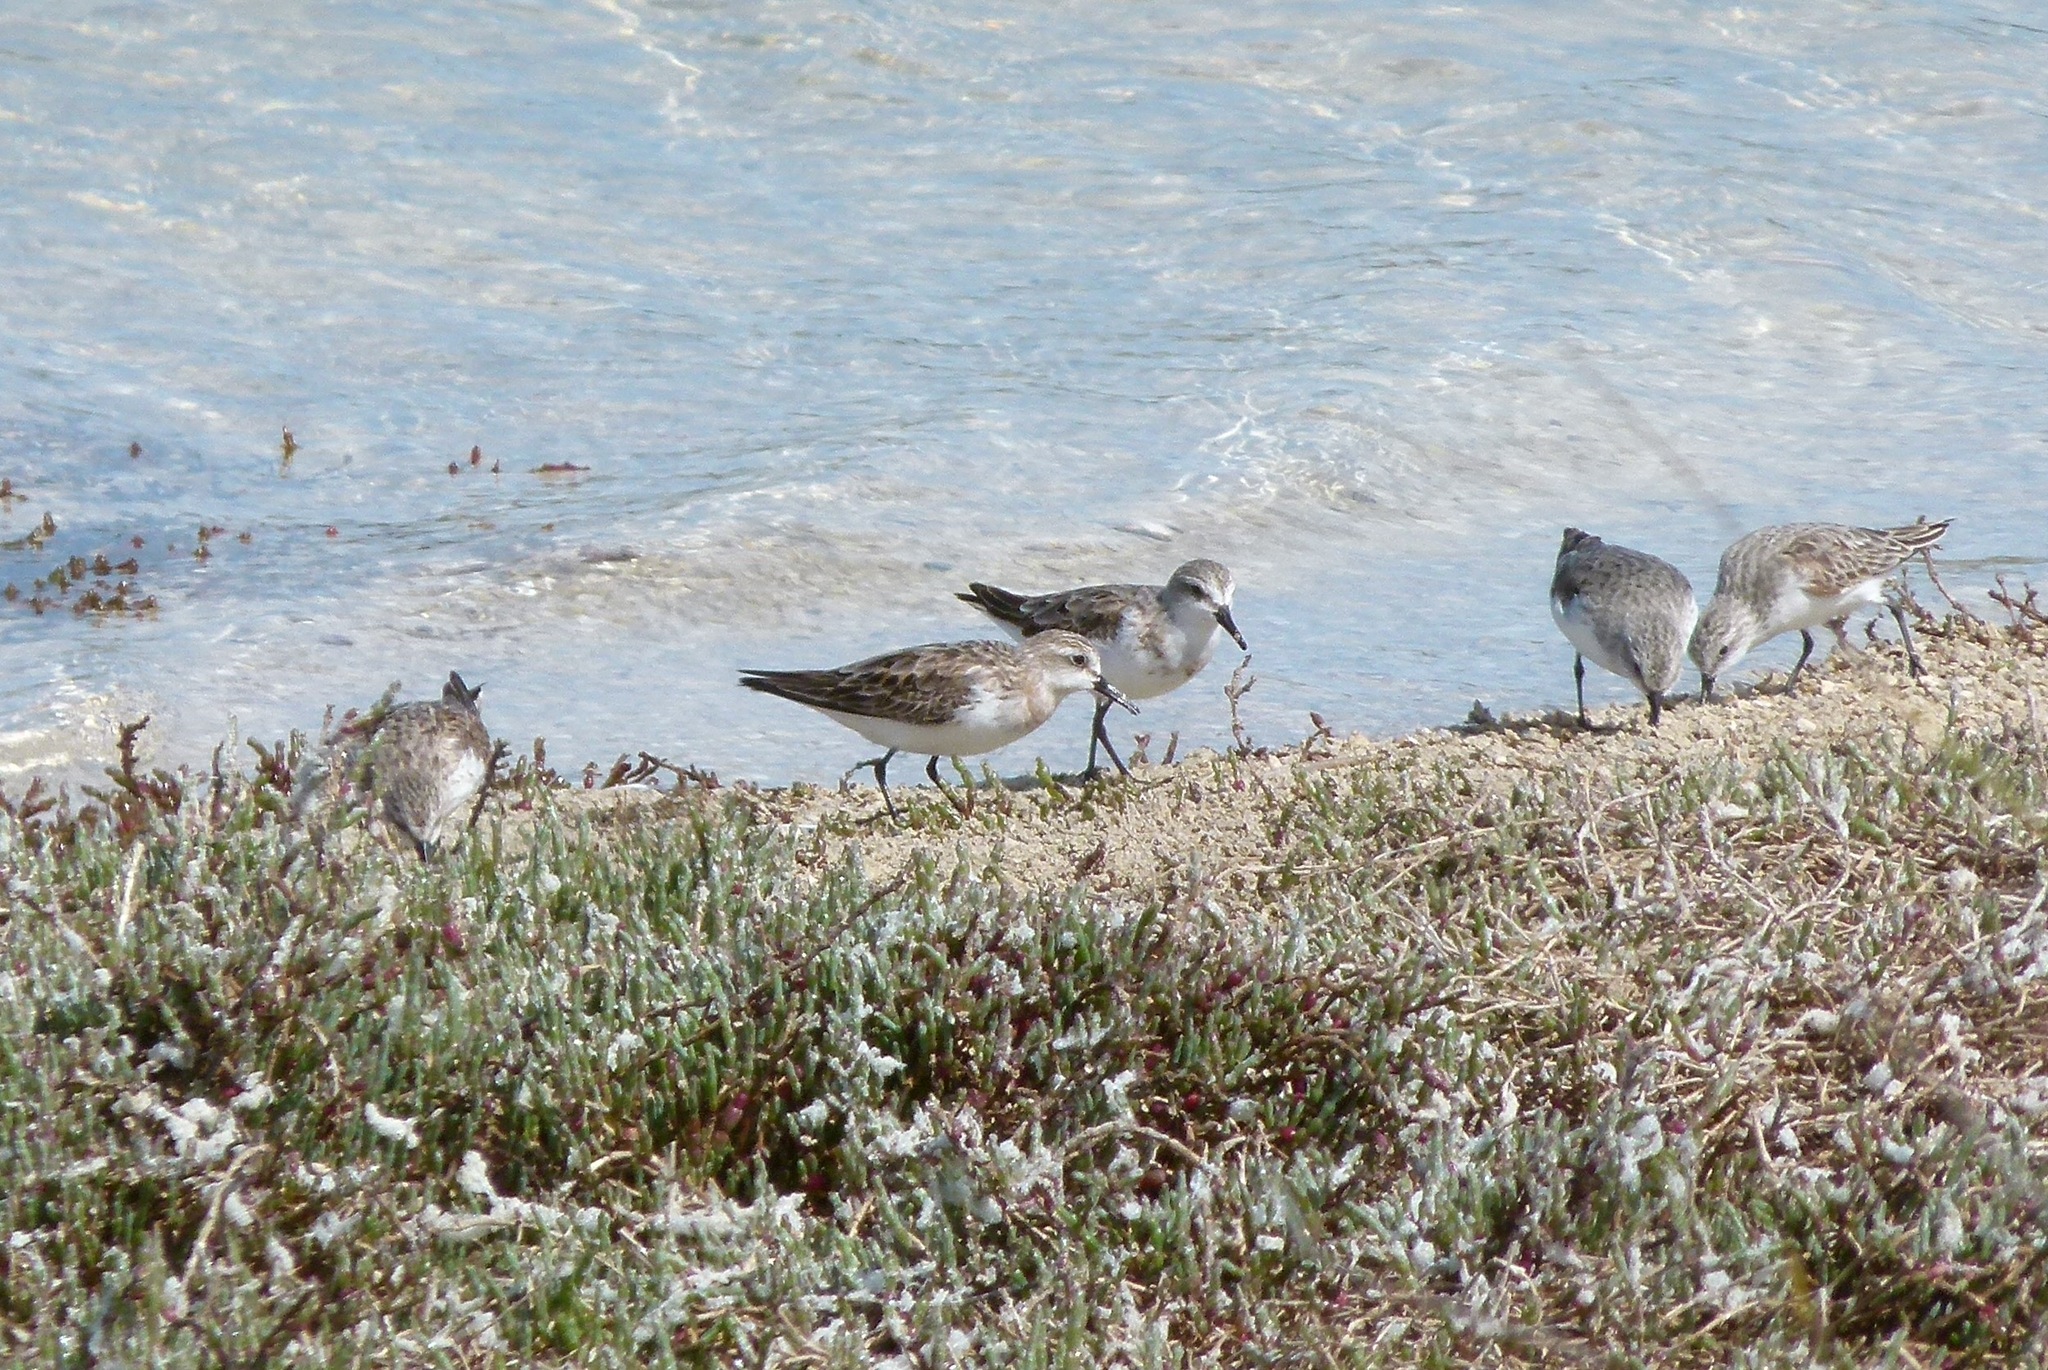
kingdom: Animalia
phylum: Chordata
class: Aves
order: Charadriiformes
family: Scolopacidae
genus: Calidris
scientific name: Calidris ruficollis
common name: Red-necked stint
